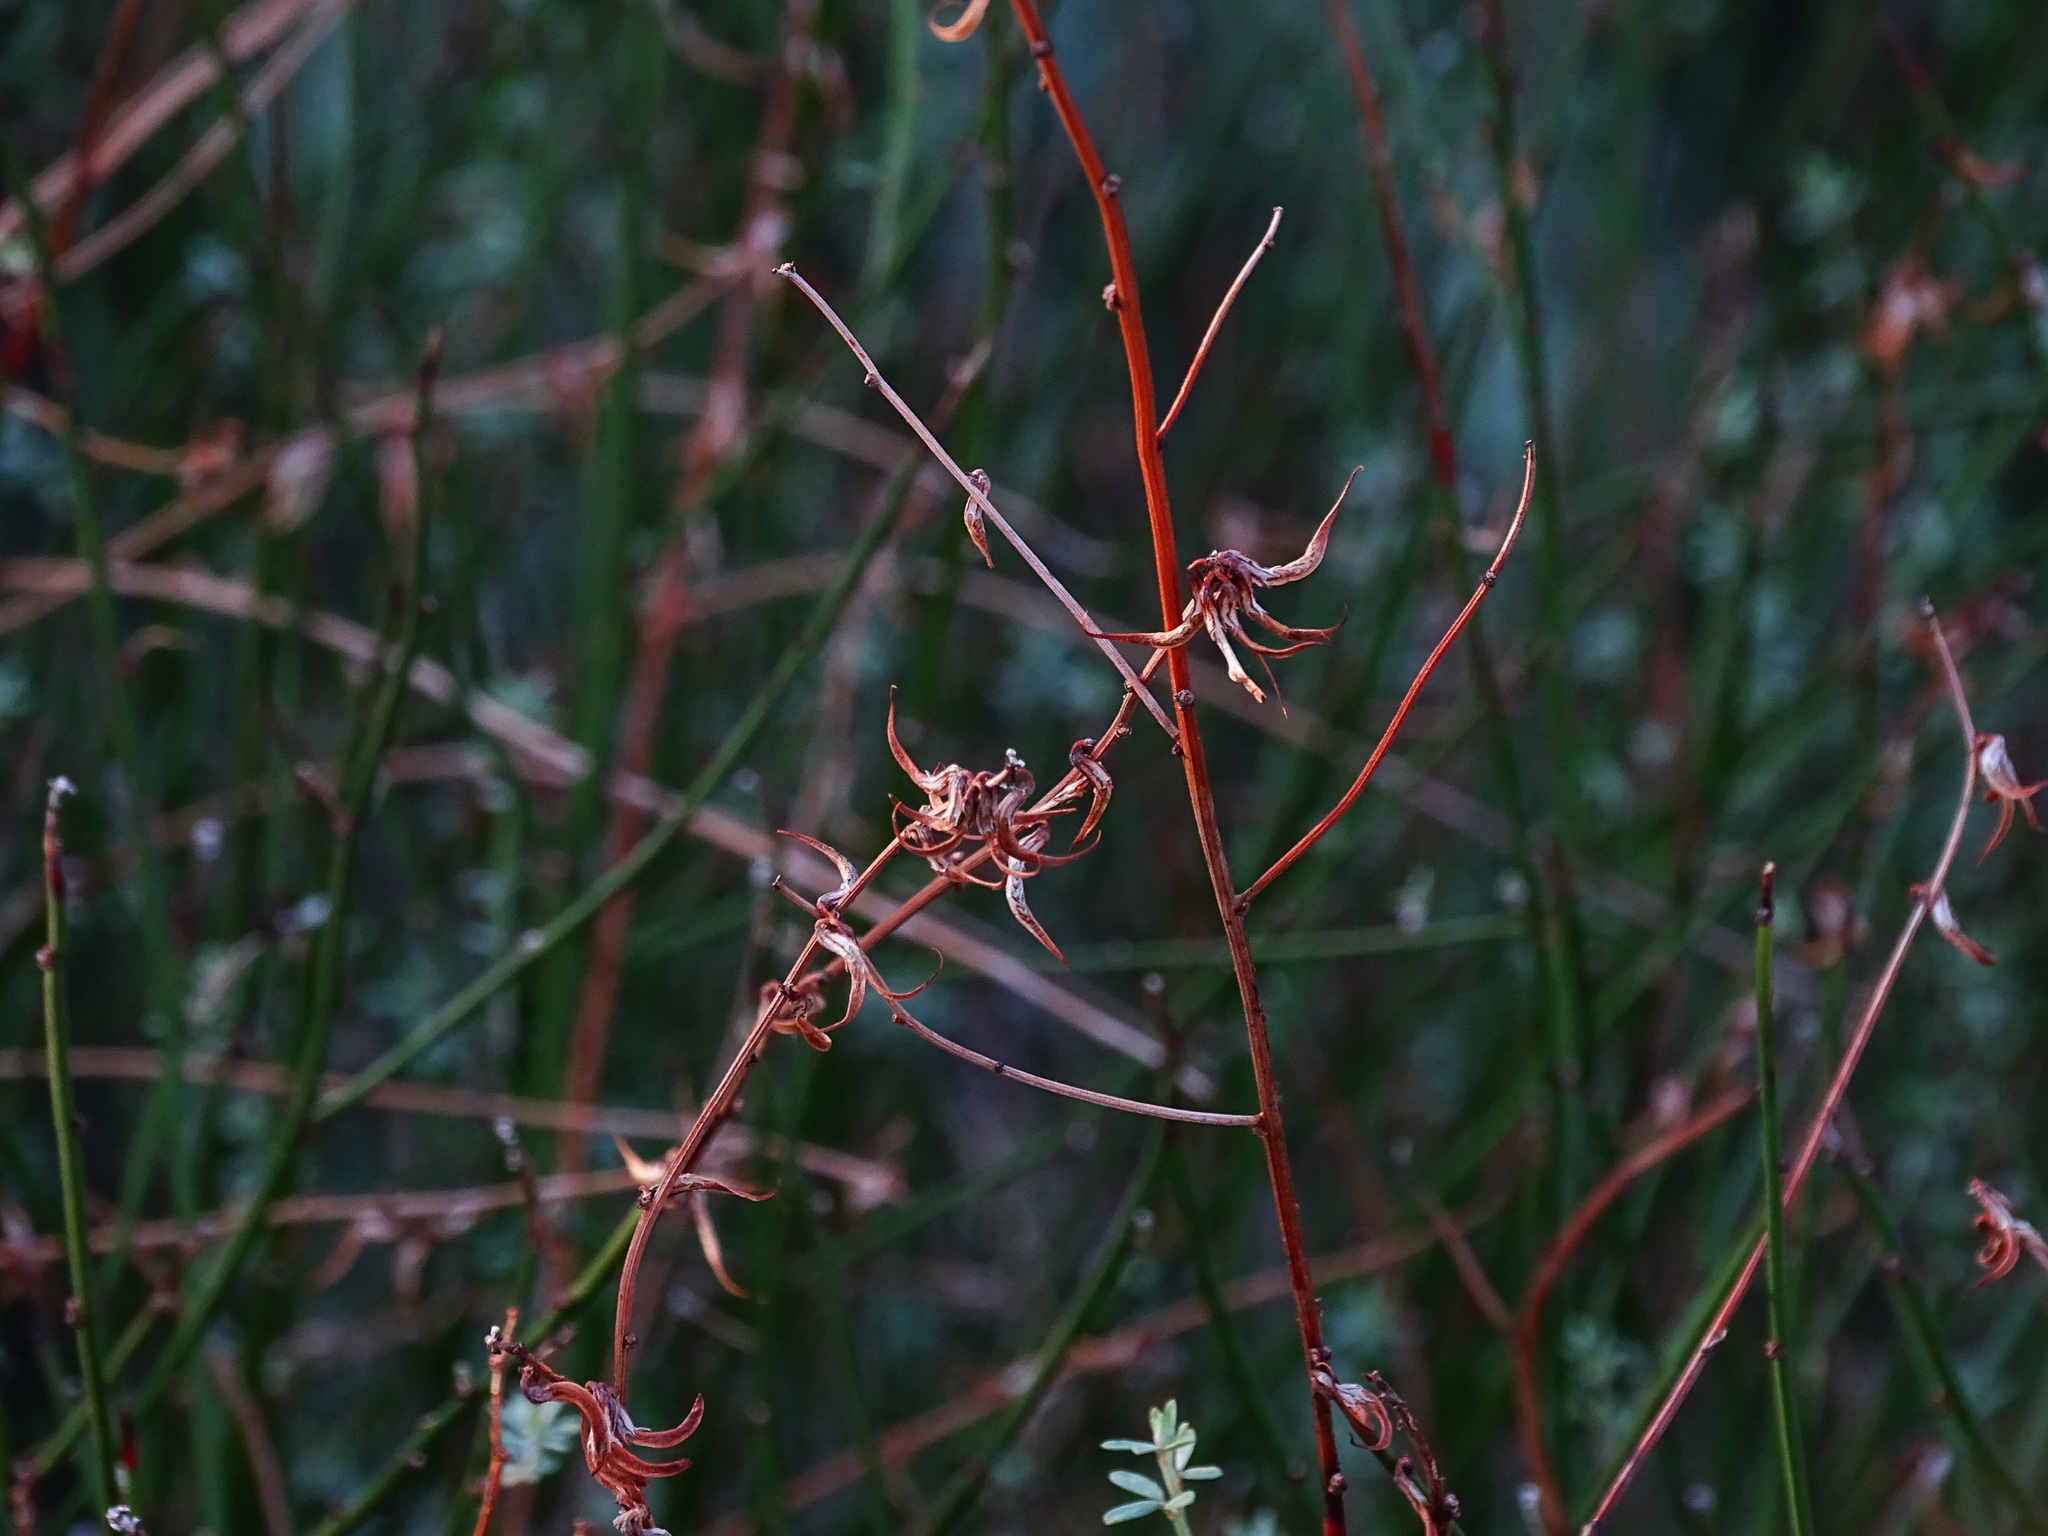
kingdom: Plantae
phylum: Tracheophyta
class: Magnoliopsida
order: Fabales
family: Fabaceae
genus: Acmispon
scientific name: Acmispon glaber
